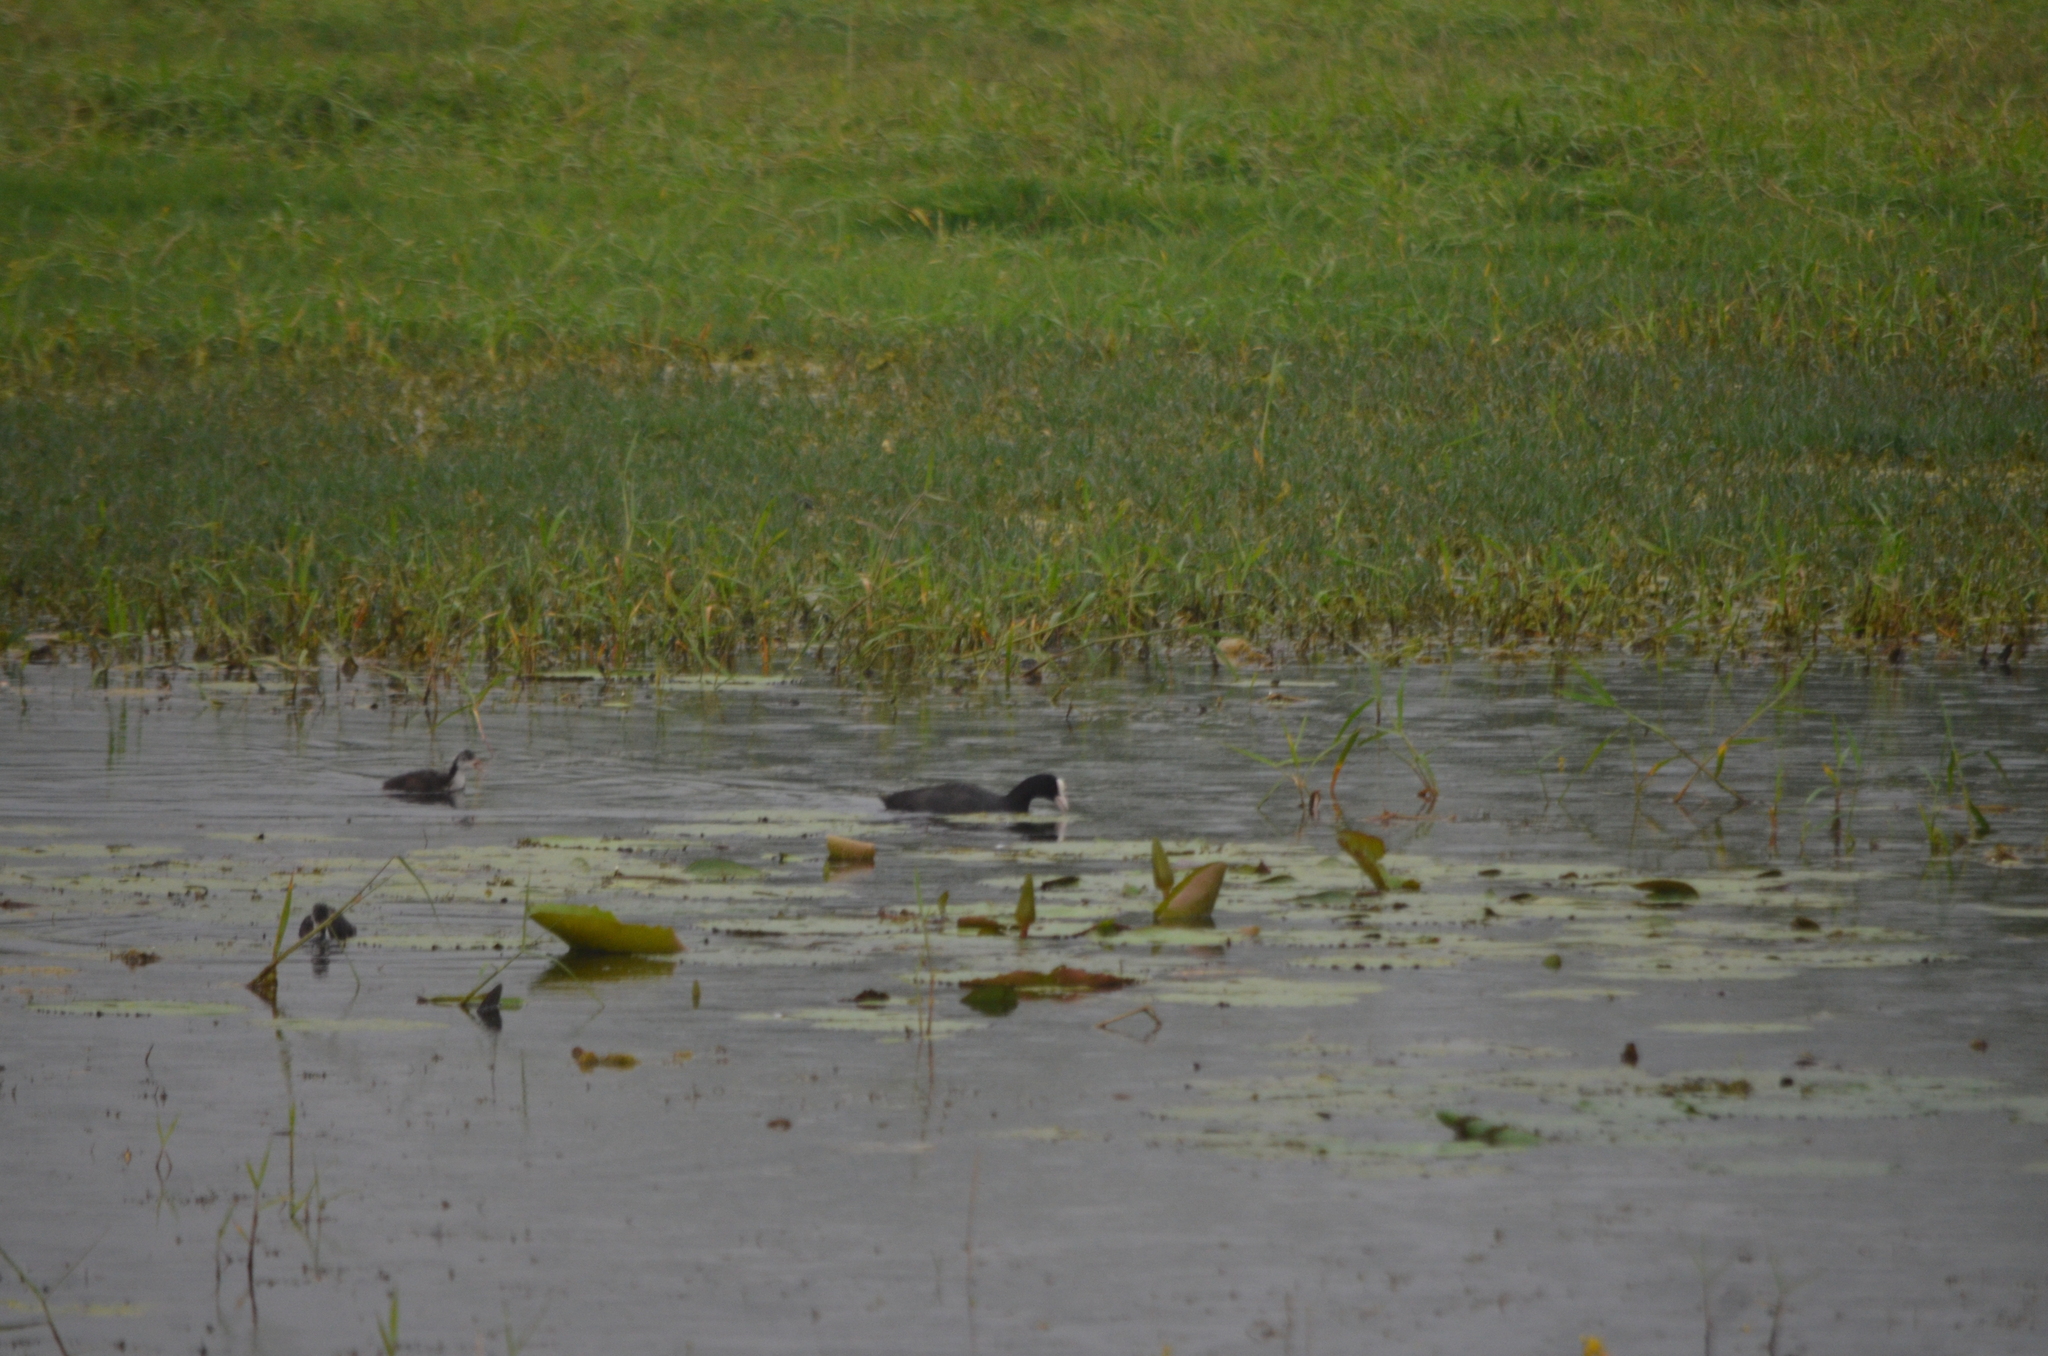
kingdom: Animalia
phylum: Chordata
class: Aves
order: Gruiformes
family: Rallidae
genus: Fulica
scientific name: Fulica atra
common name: Eurasian coot
